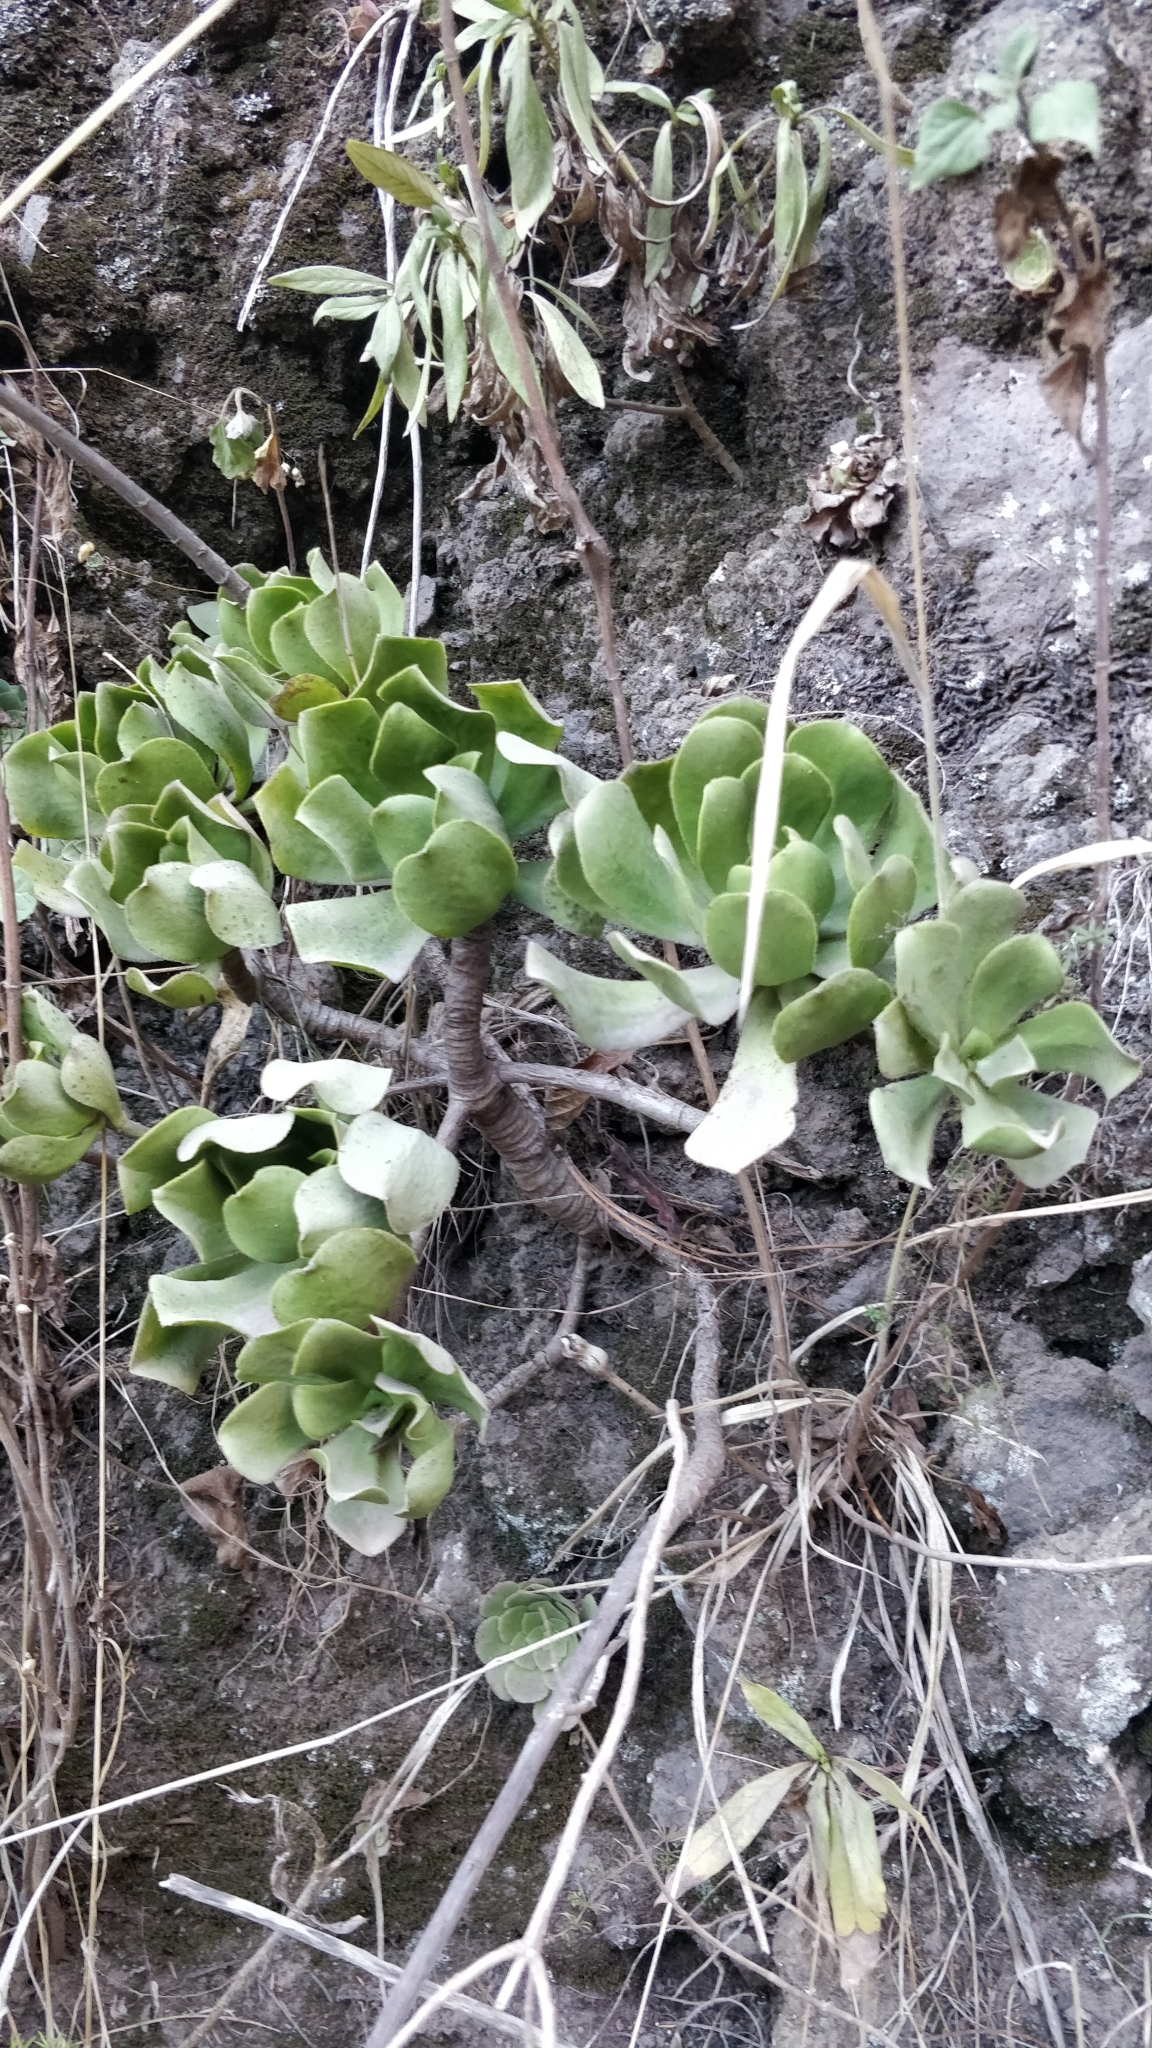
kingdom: Plantae
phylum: Tracheophyta
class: Magnoliopsida
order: Saxifragales
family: Crassulaceae
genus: Aeonium
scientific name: Aeonium glutinosum
